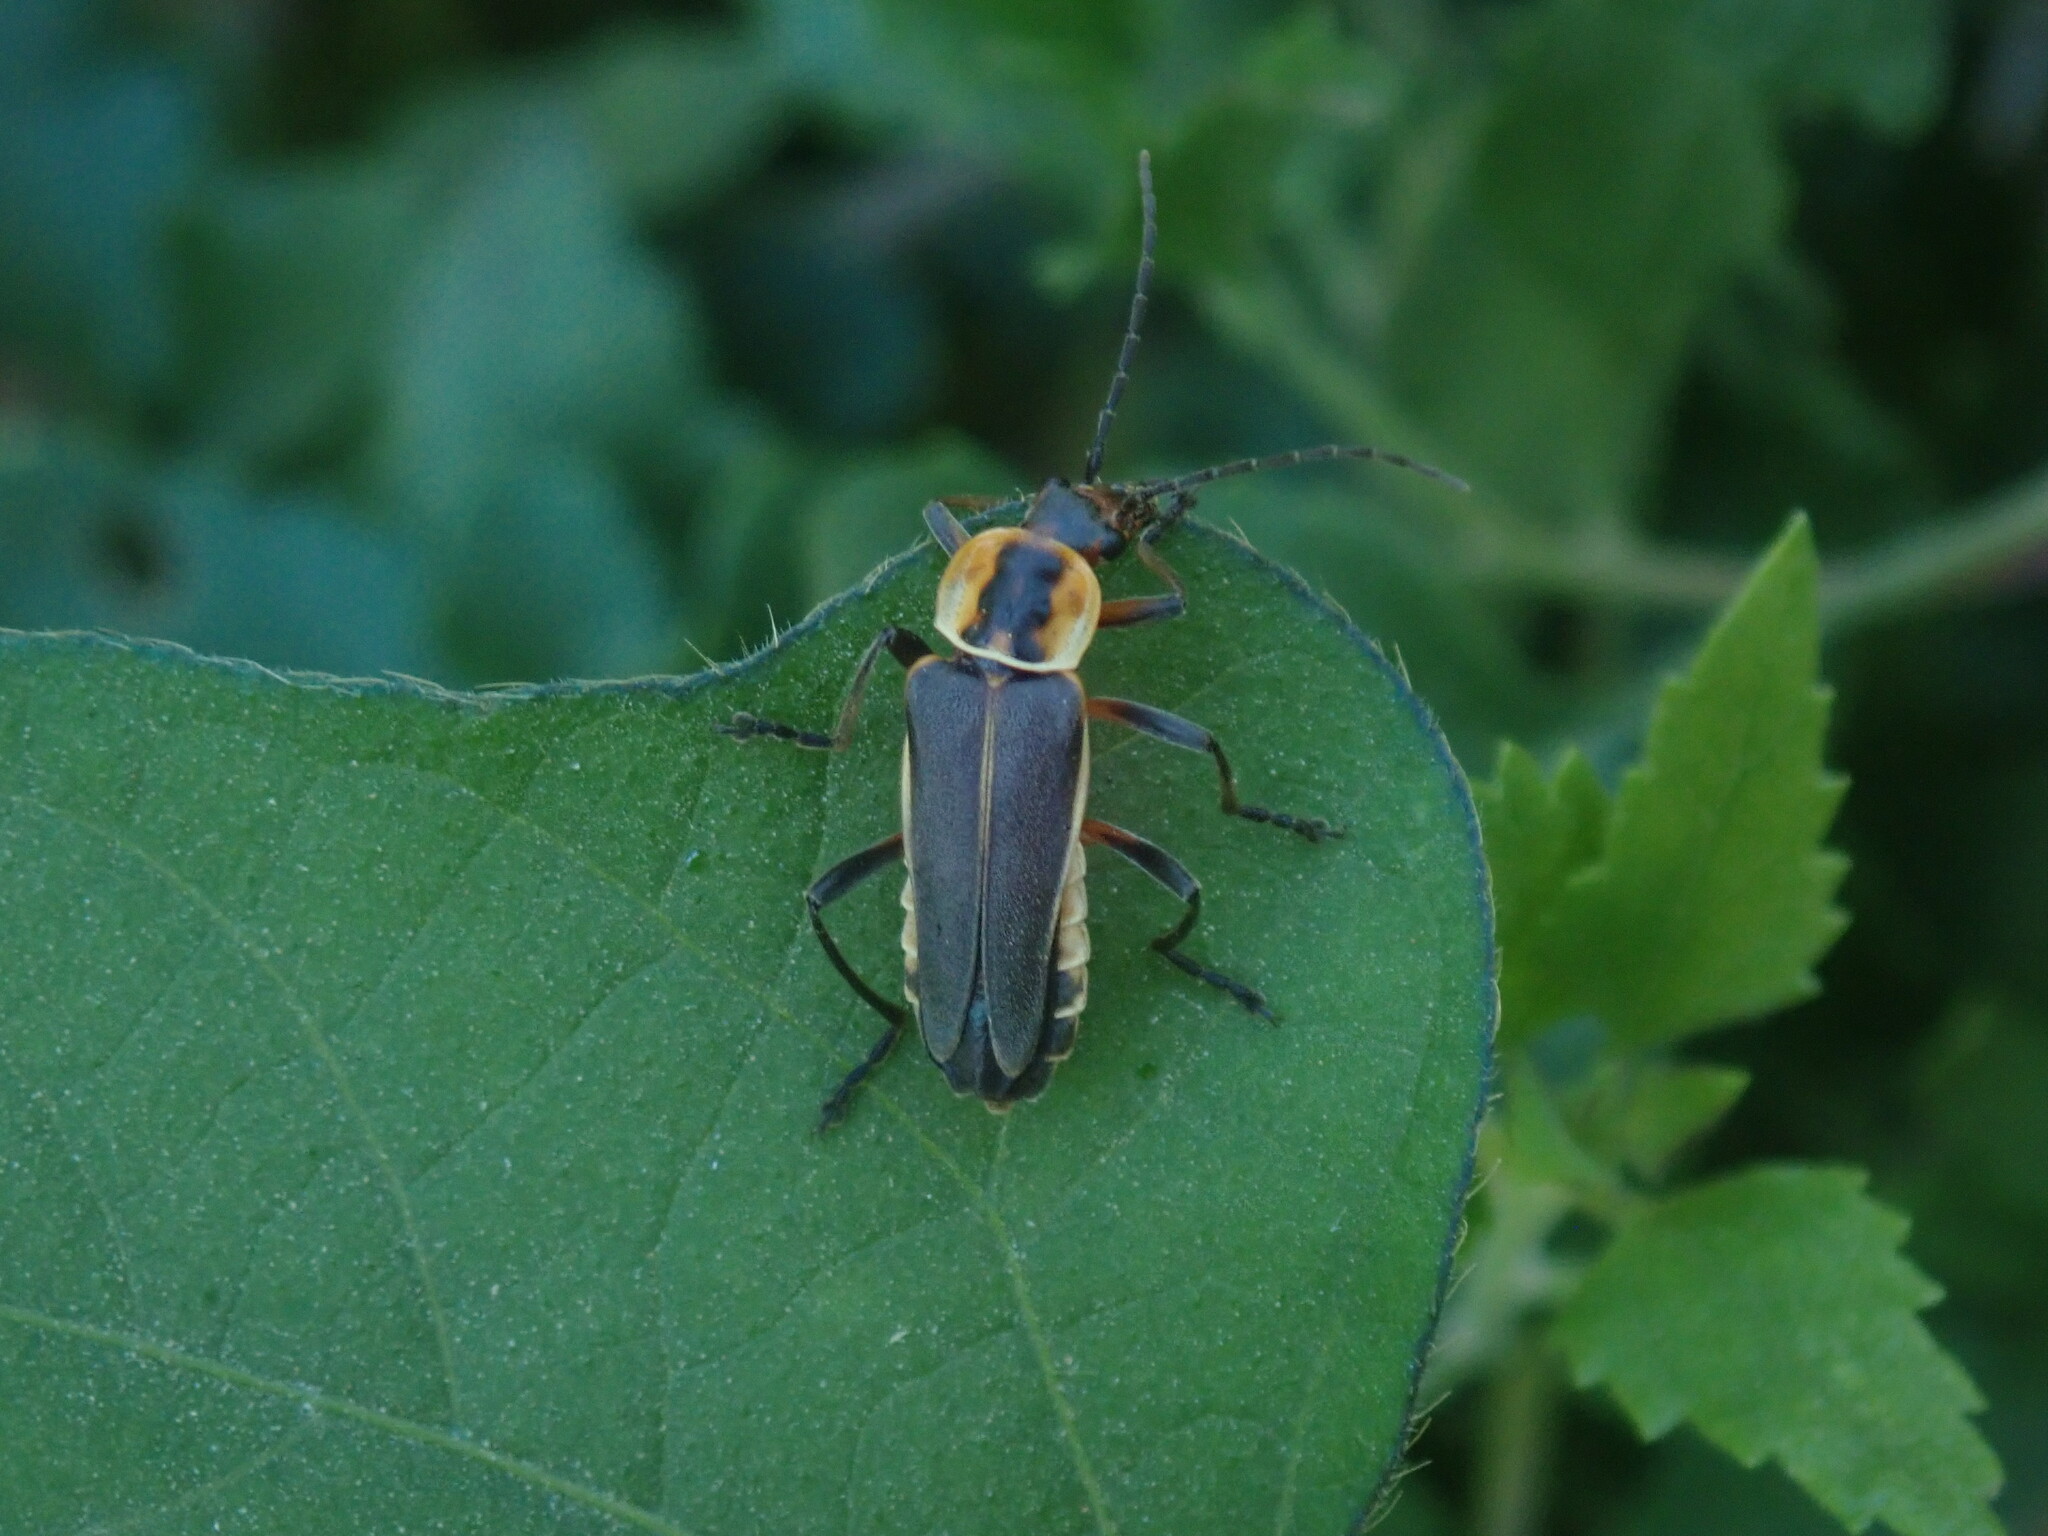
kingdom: Animalia
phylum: Arthropoda
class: Insecta
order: Coleoptera
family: Cantharidae
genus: Chauliognathus
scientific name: Chauliognathus obscurus
